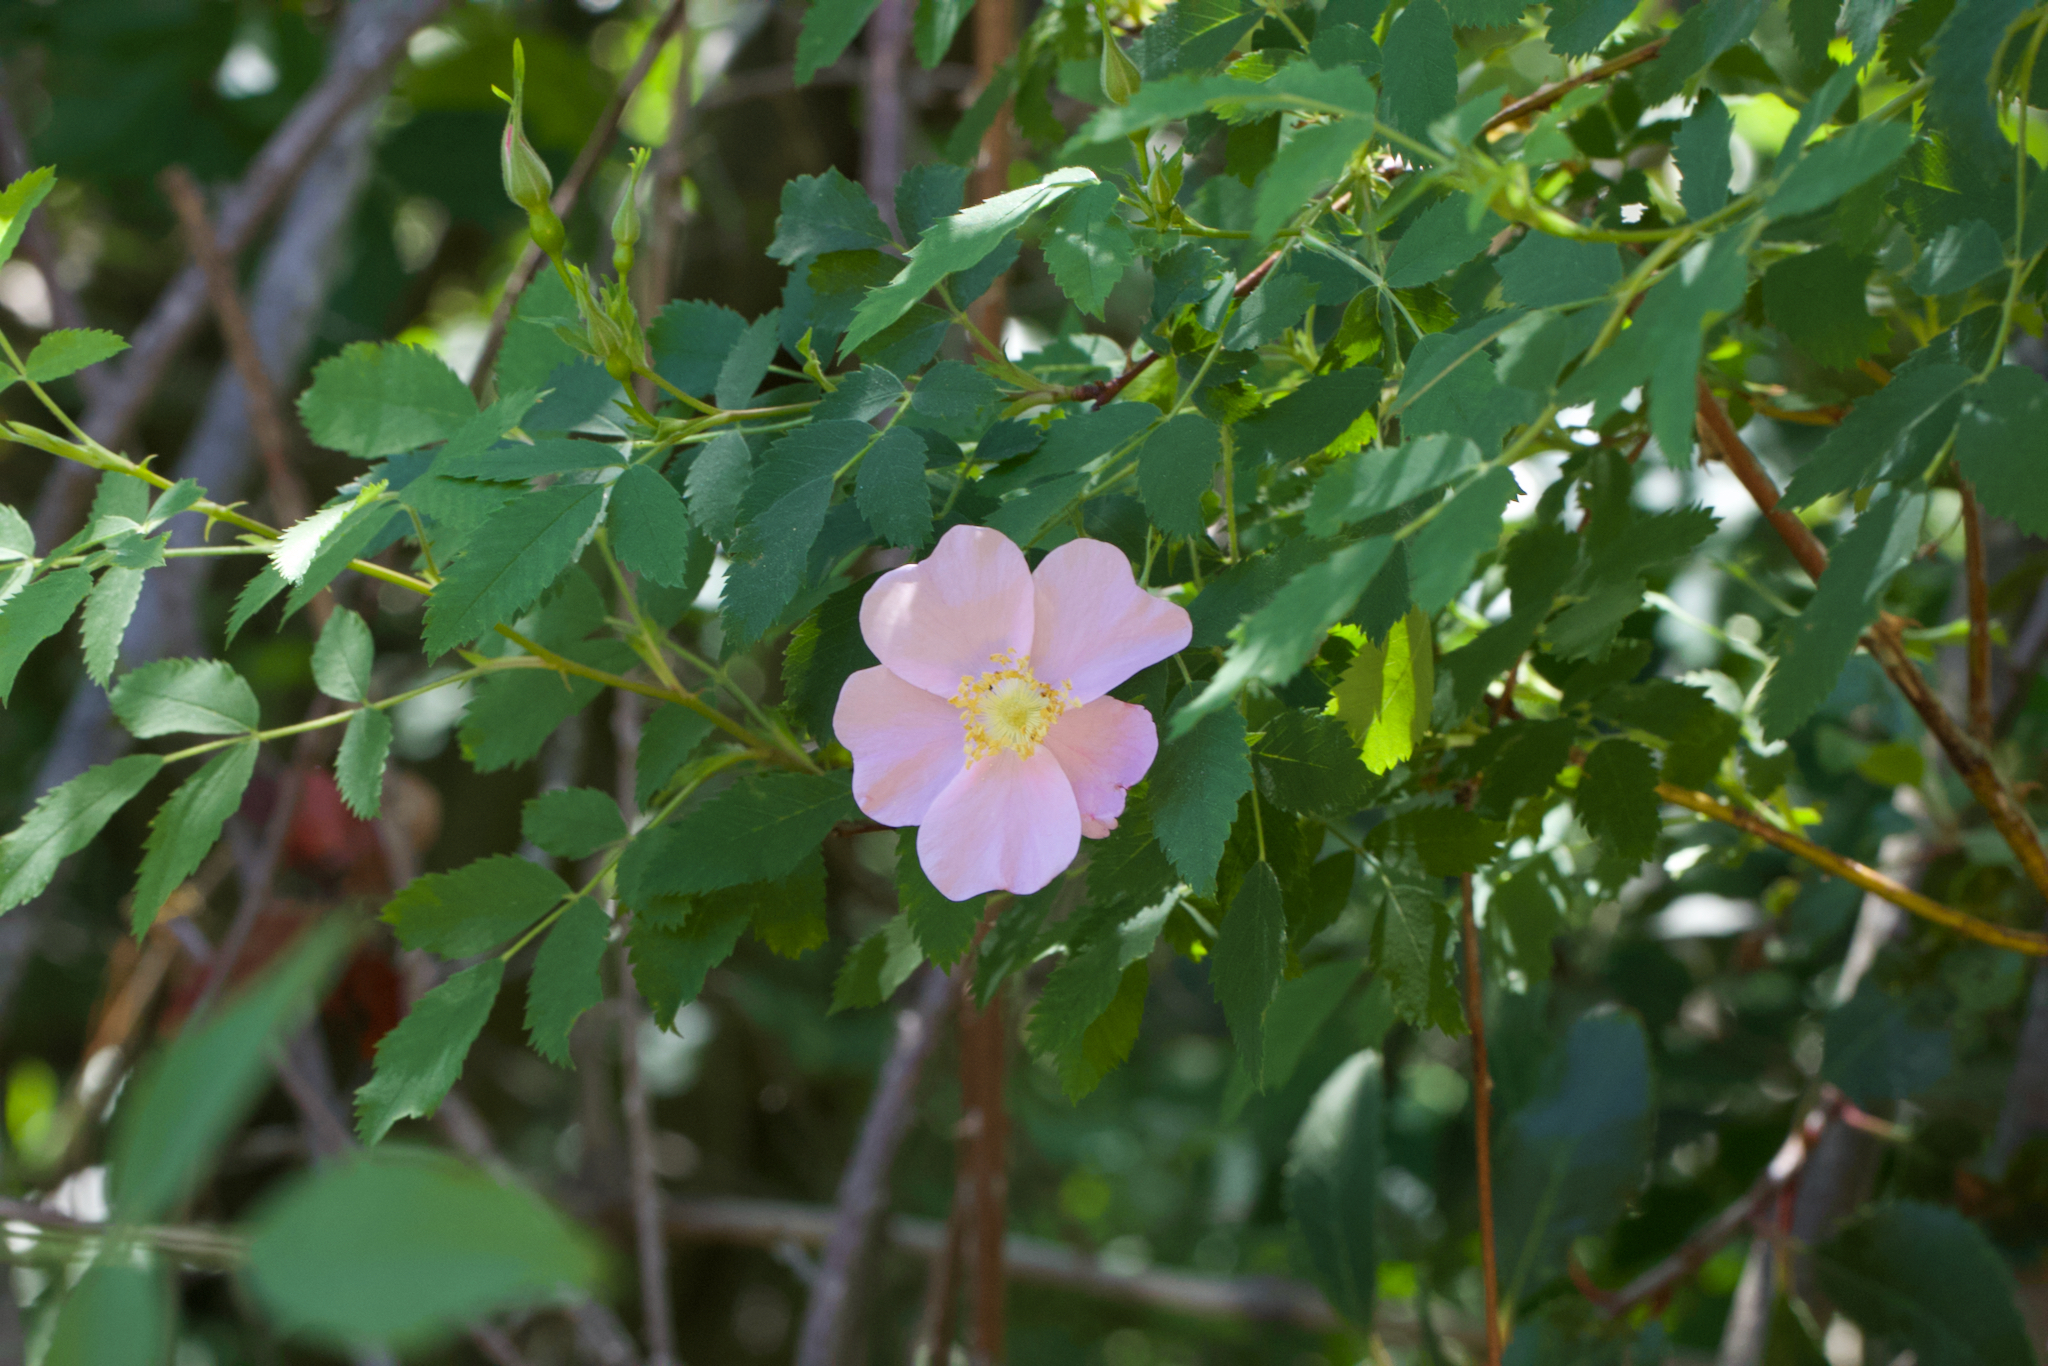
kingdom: Plantae
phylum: Tracheophyta
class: Magnoliopsida
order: Rosales
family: Rosaceae
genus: Rosa
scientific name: Rosa californica
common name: California rose
